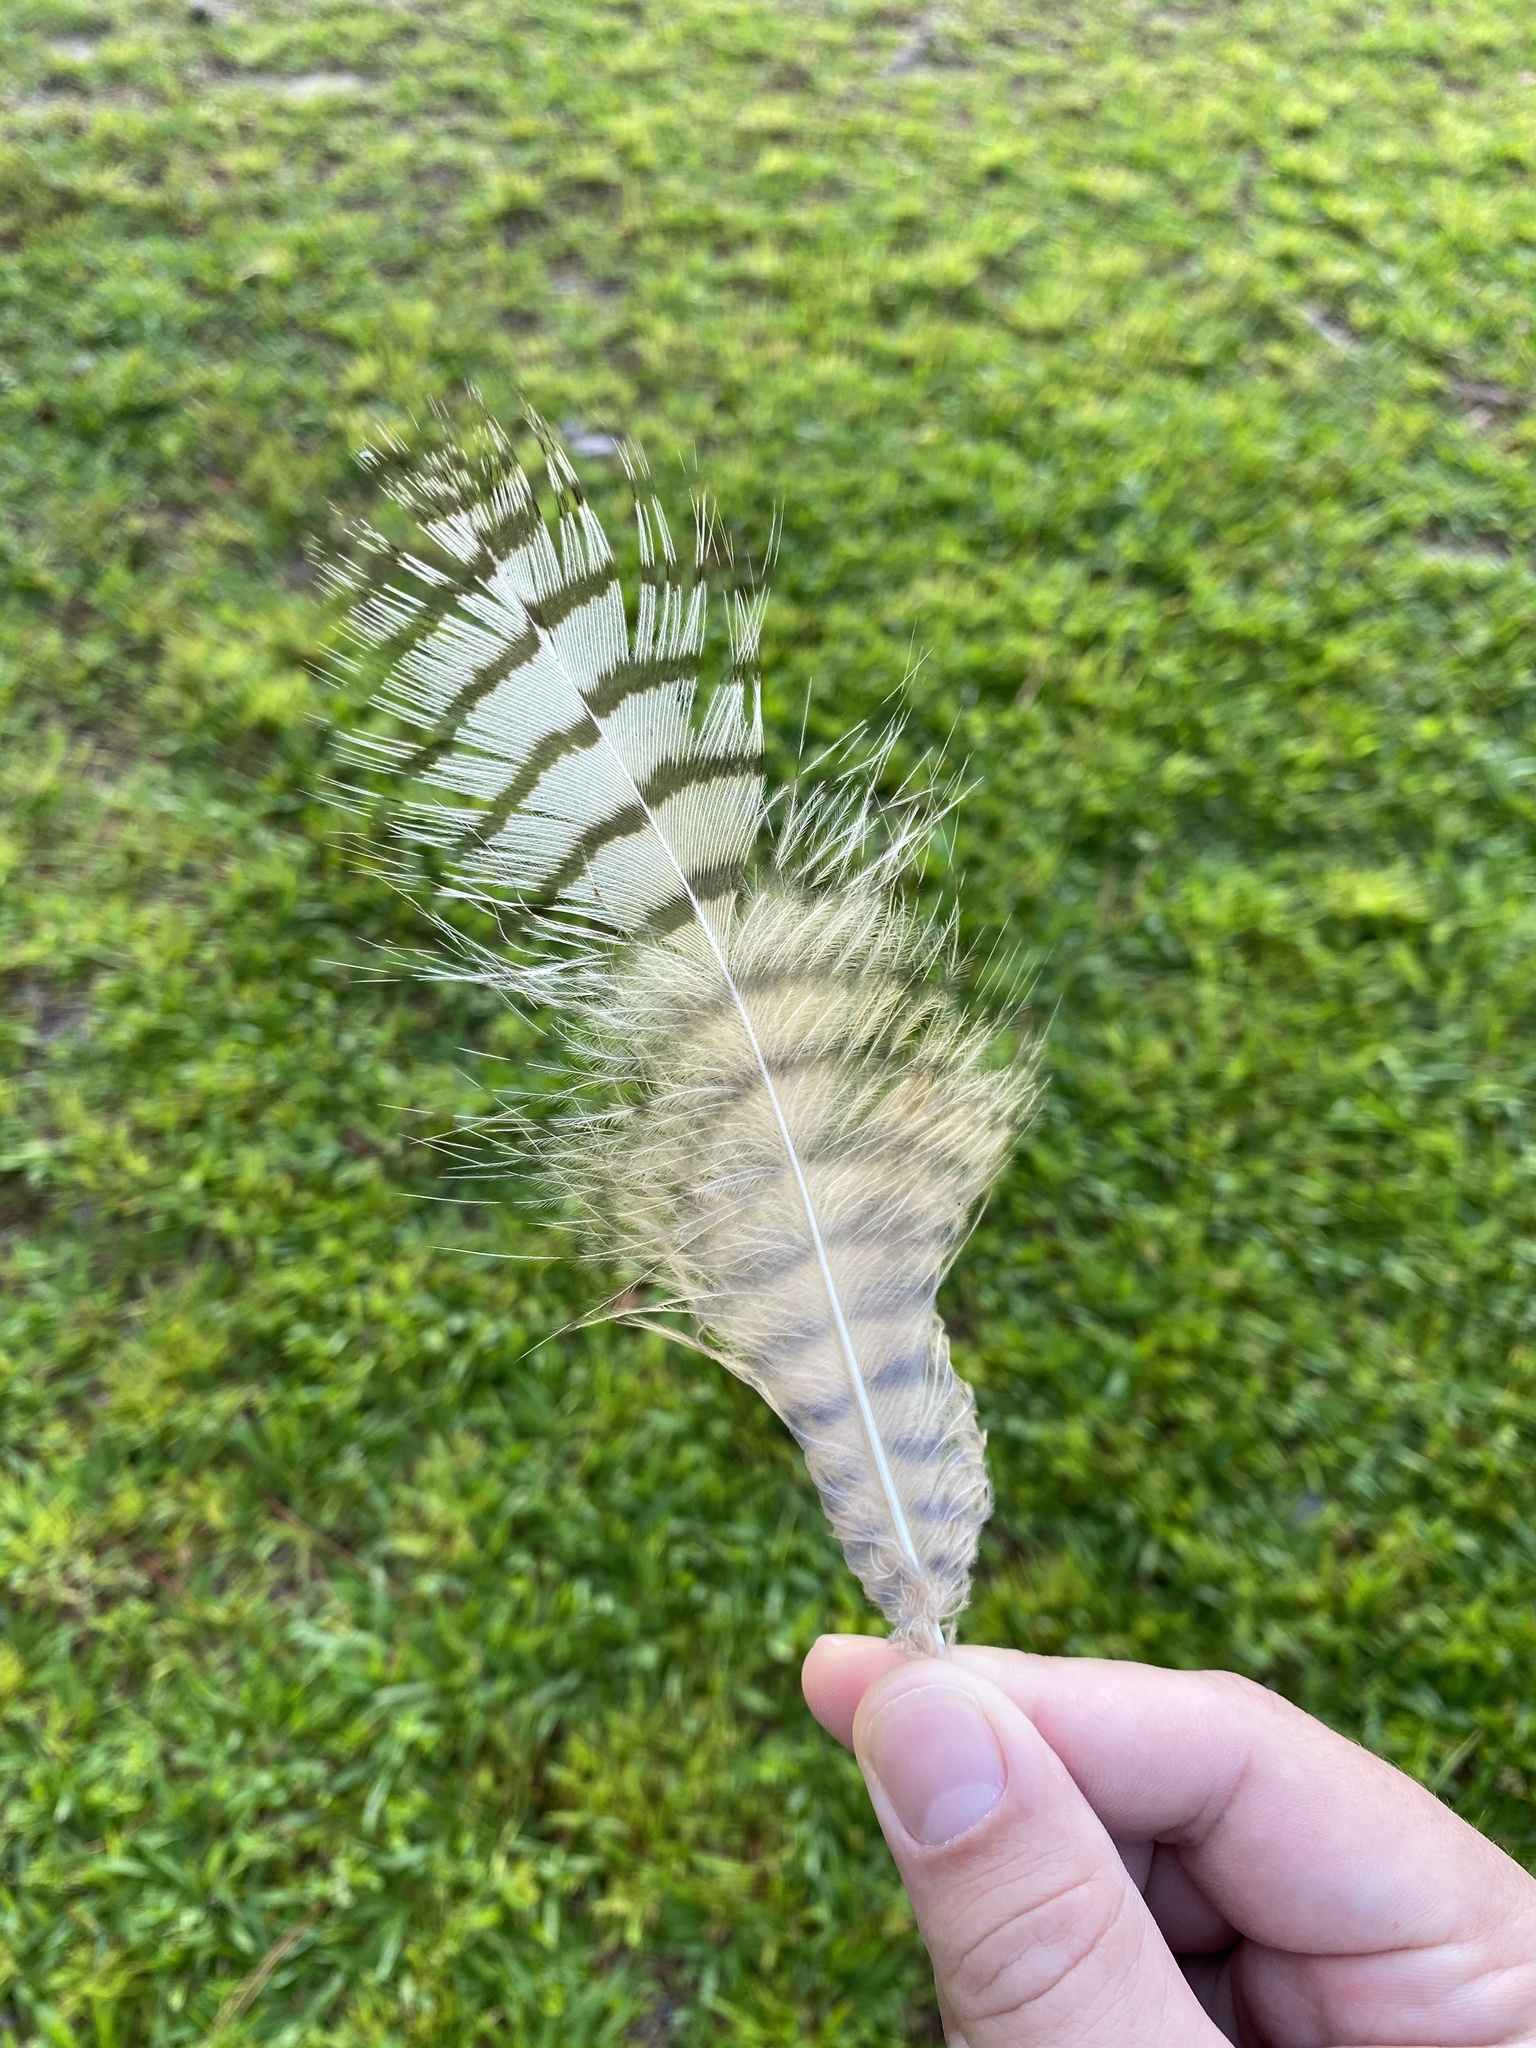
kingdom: Animalia
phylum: Chordata
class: Aves
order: Strigiformes
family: Strigidae
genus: Bubo
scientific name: Bubo virginianus
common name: Great horned owl
